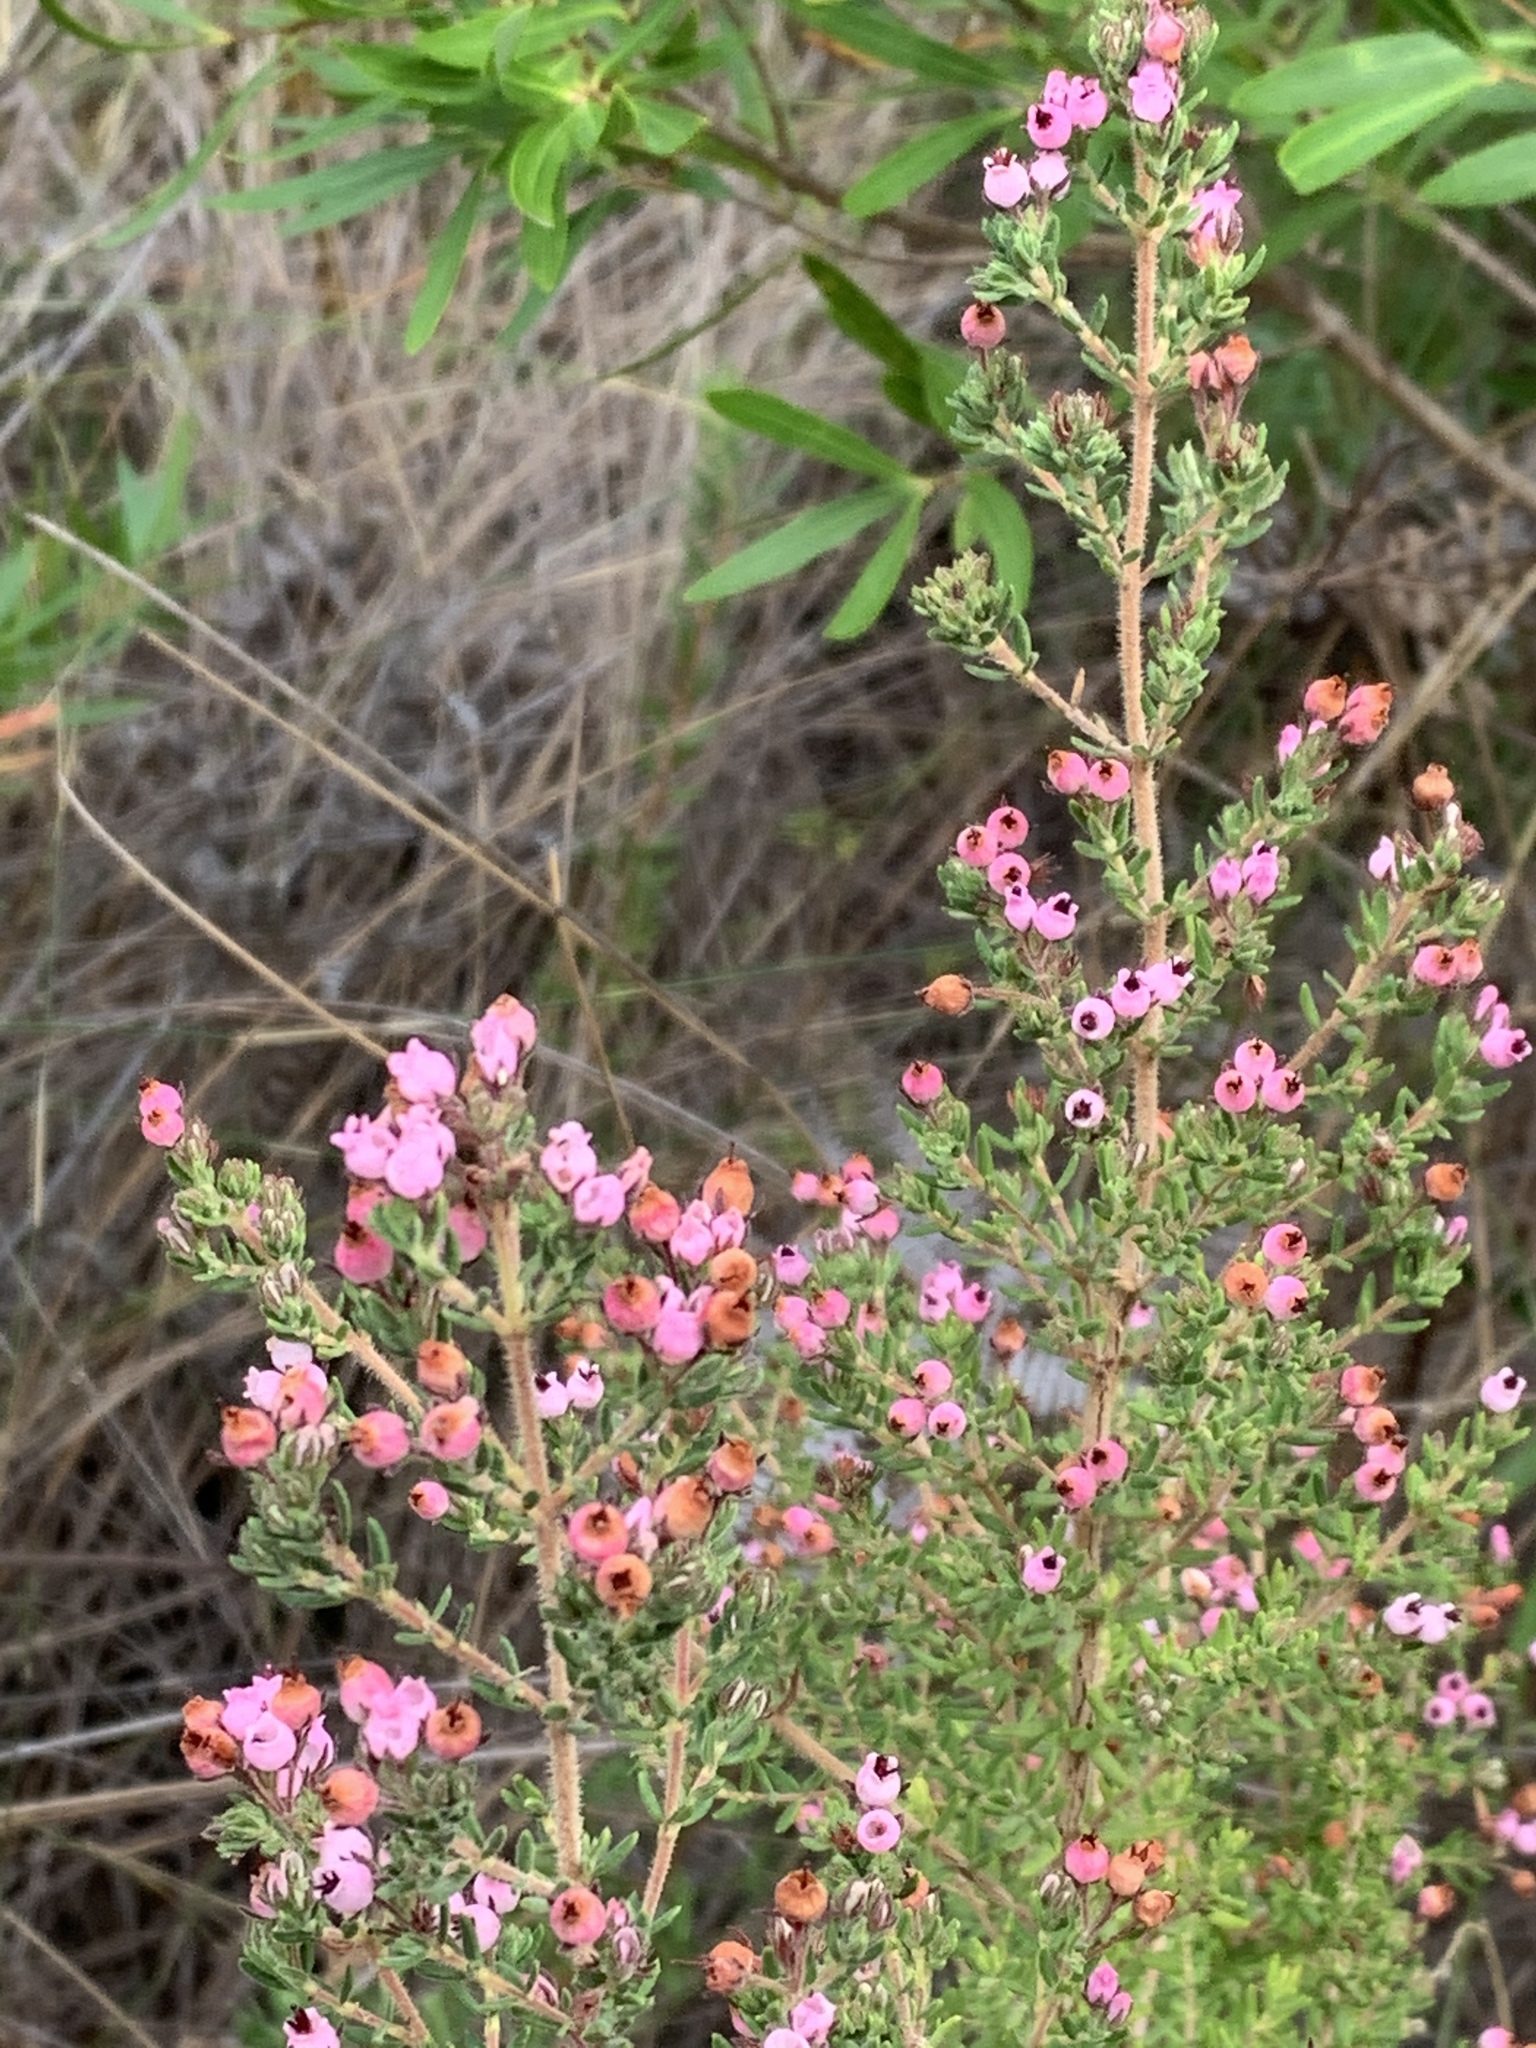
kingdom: Plantae
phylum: Tracheophyta
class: Magnoliopsida
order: Ericales
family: Ericaceae
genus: Erica
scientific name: Erica hirta
